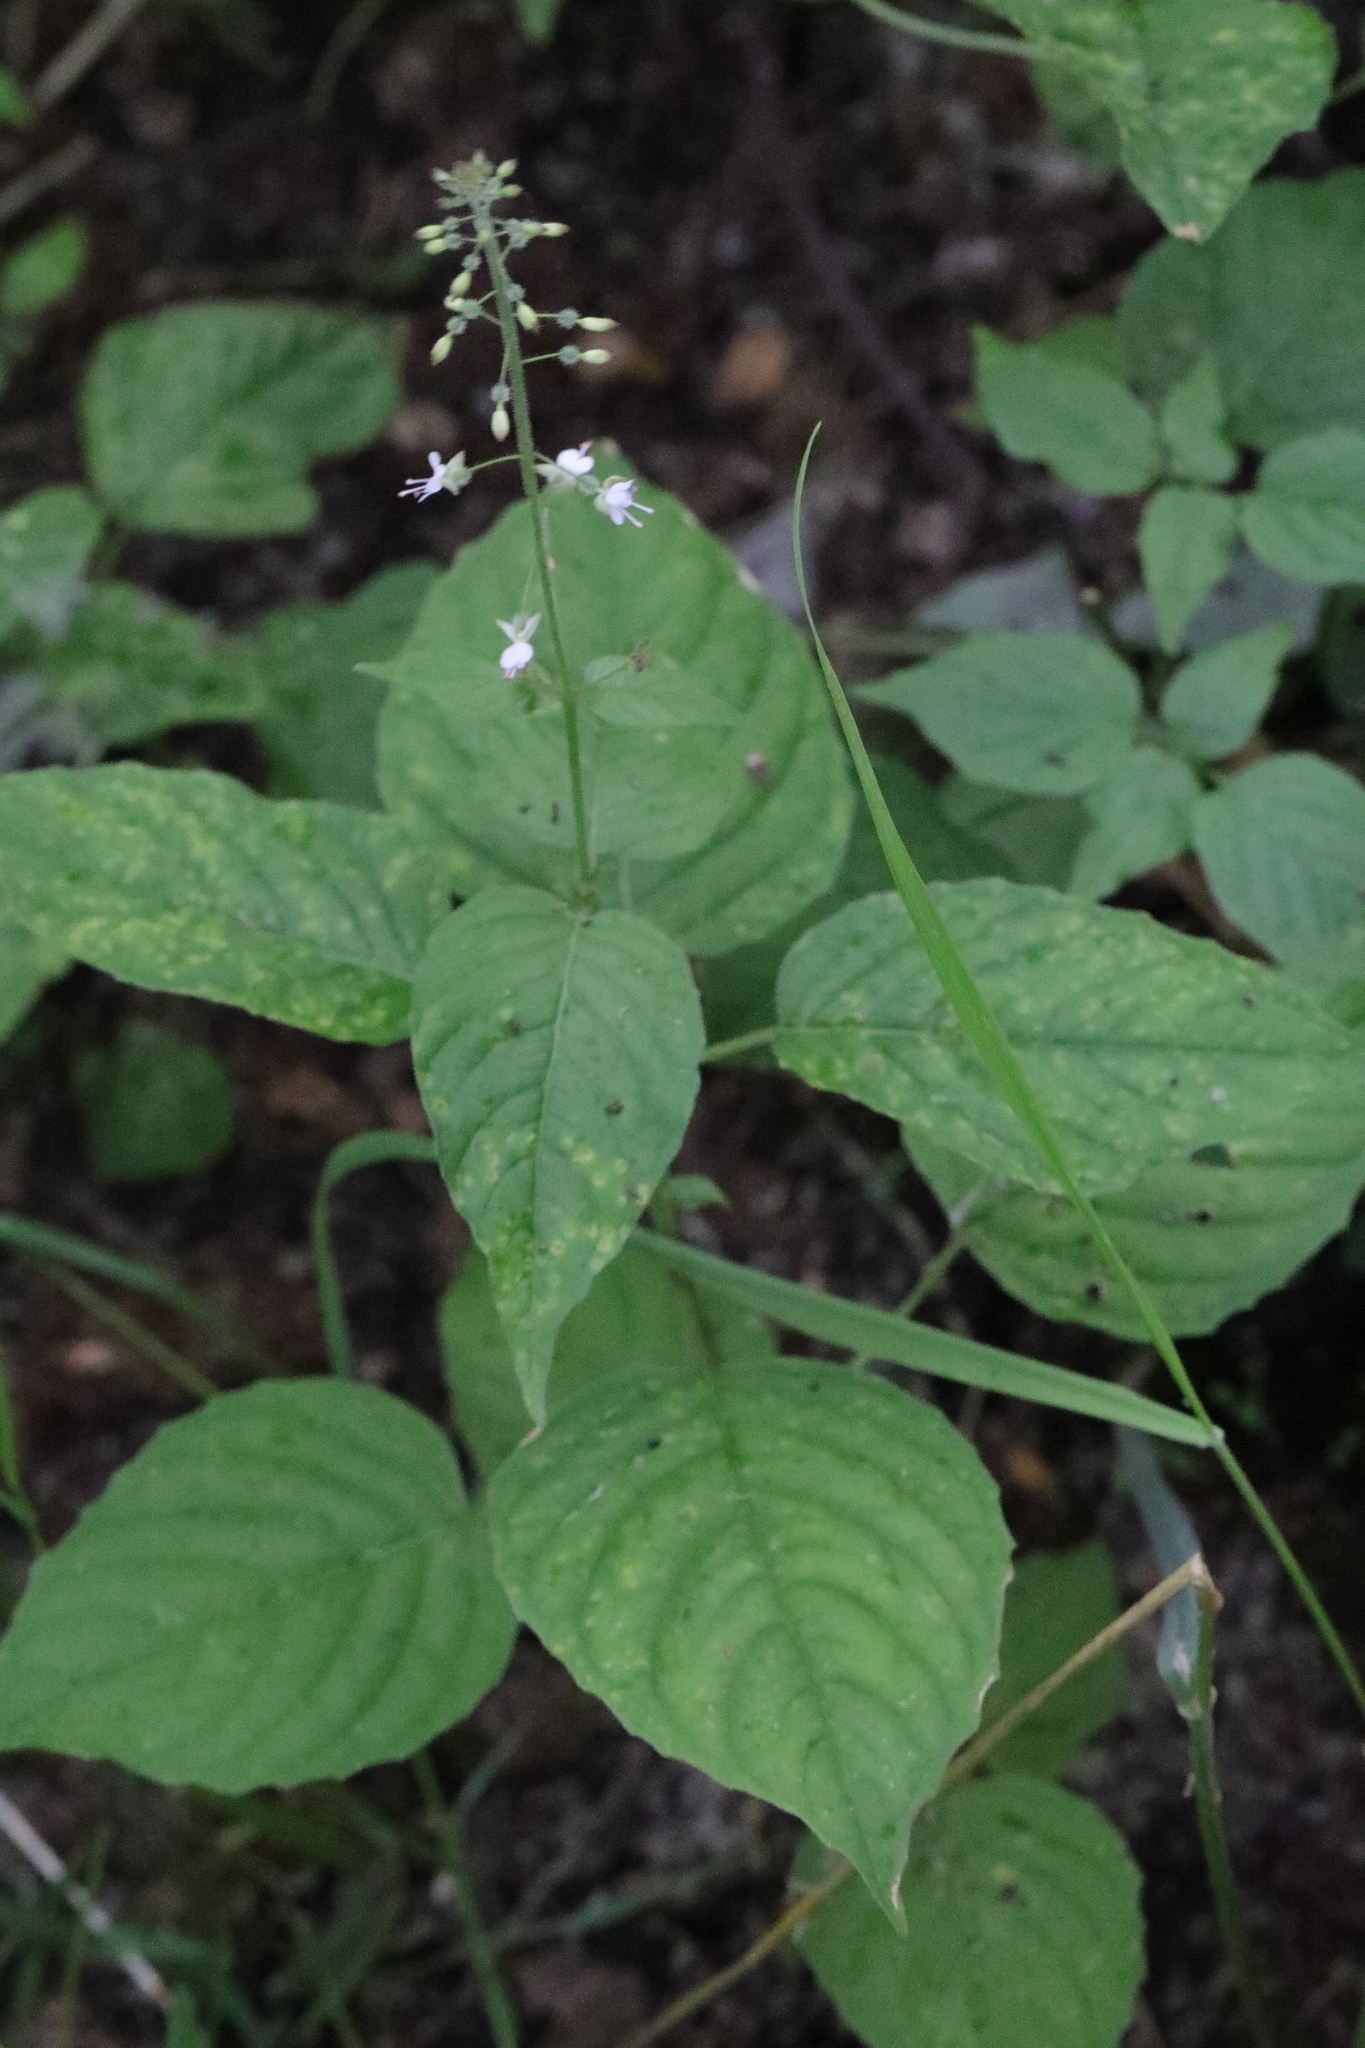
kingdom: Plantae
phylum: Tracheophyta
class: Magnoliopsida
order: Myrtales
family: Onagraceae
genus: Circaea
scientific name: Circaea lutetiana
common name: Enchanter's-nightshade
